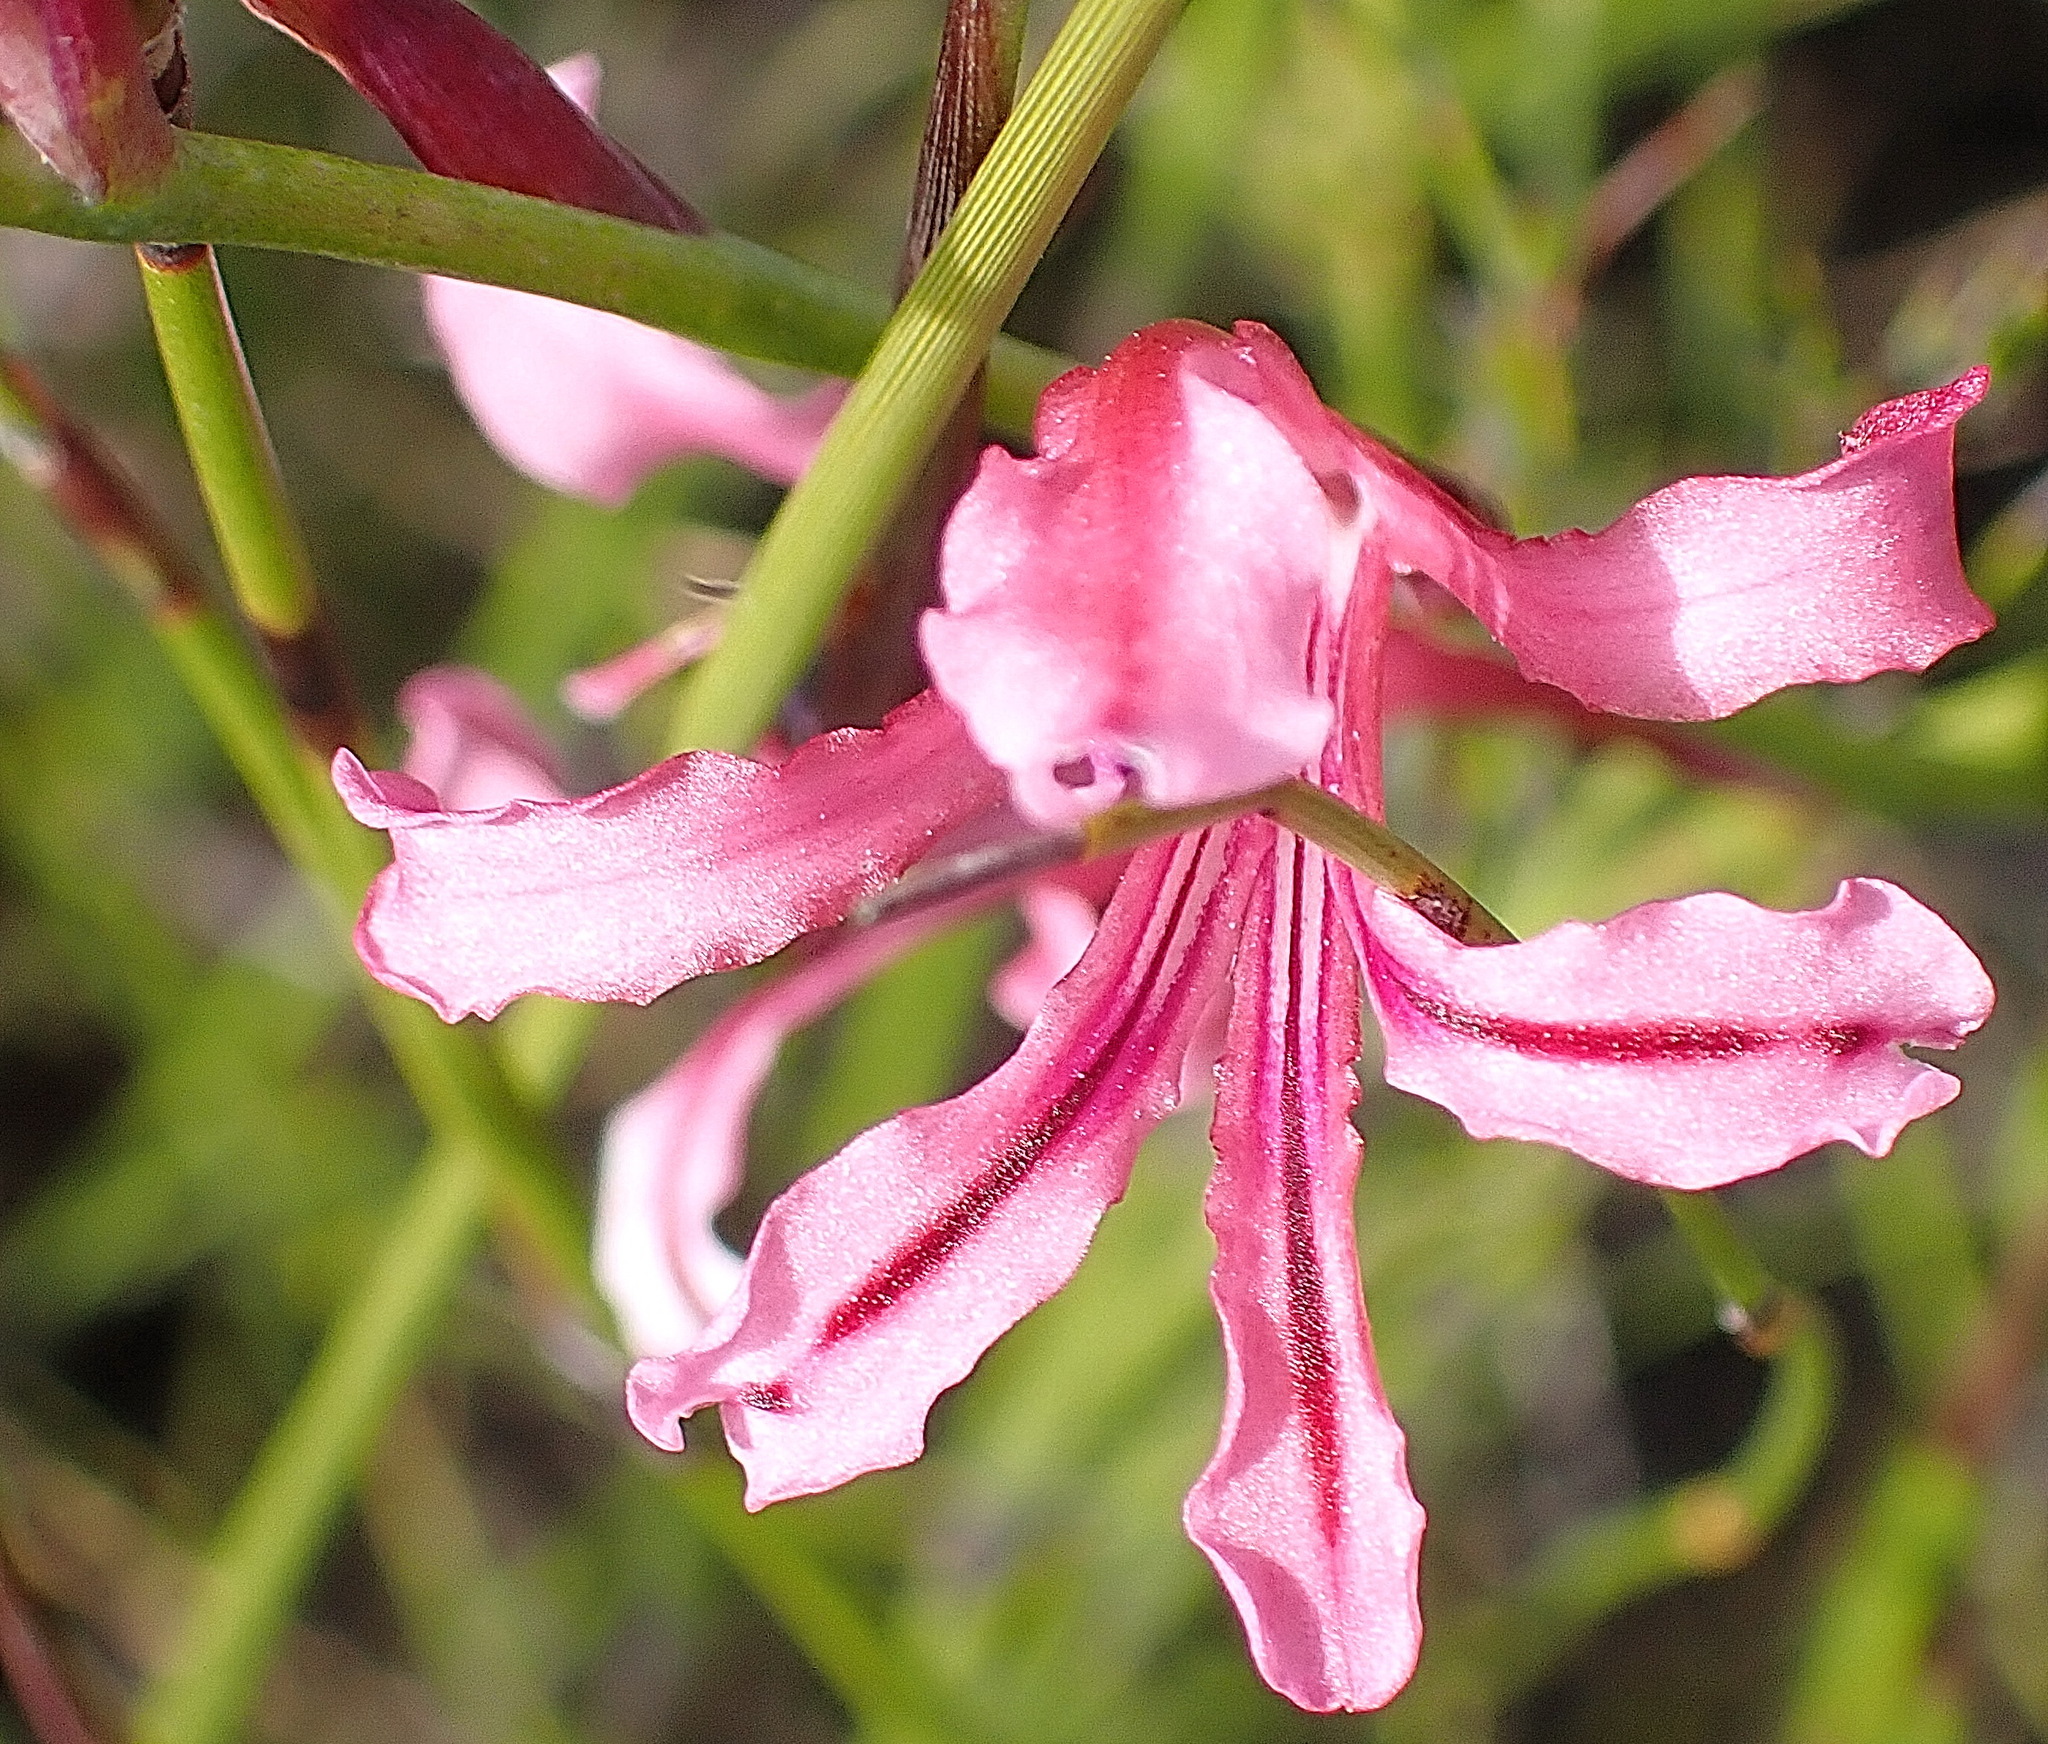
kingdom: Plantae
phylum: Tracheophyta
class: Liliopsida
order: Asparagales
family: Iridaceae
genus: Tritoniopsis
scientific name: Tritoniopsis ramosa
